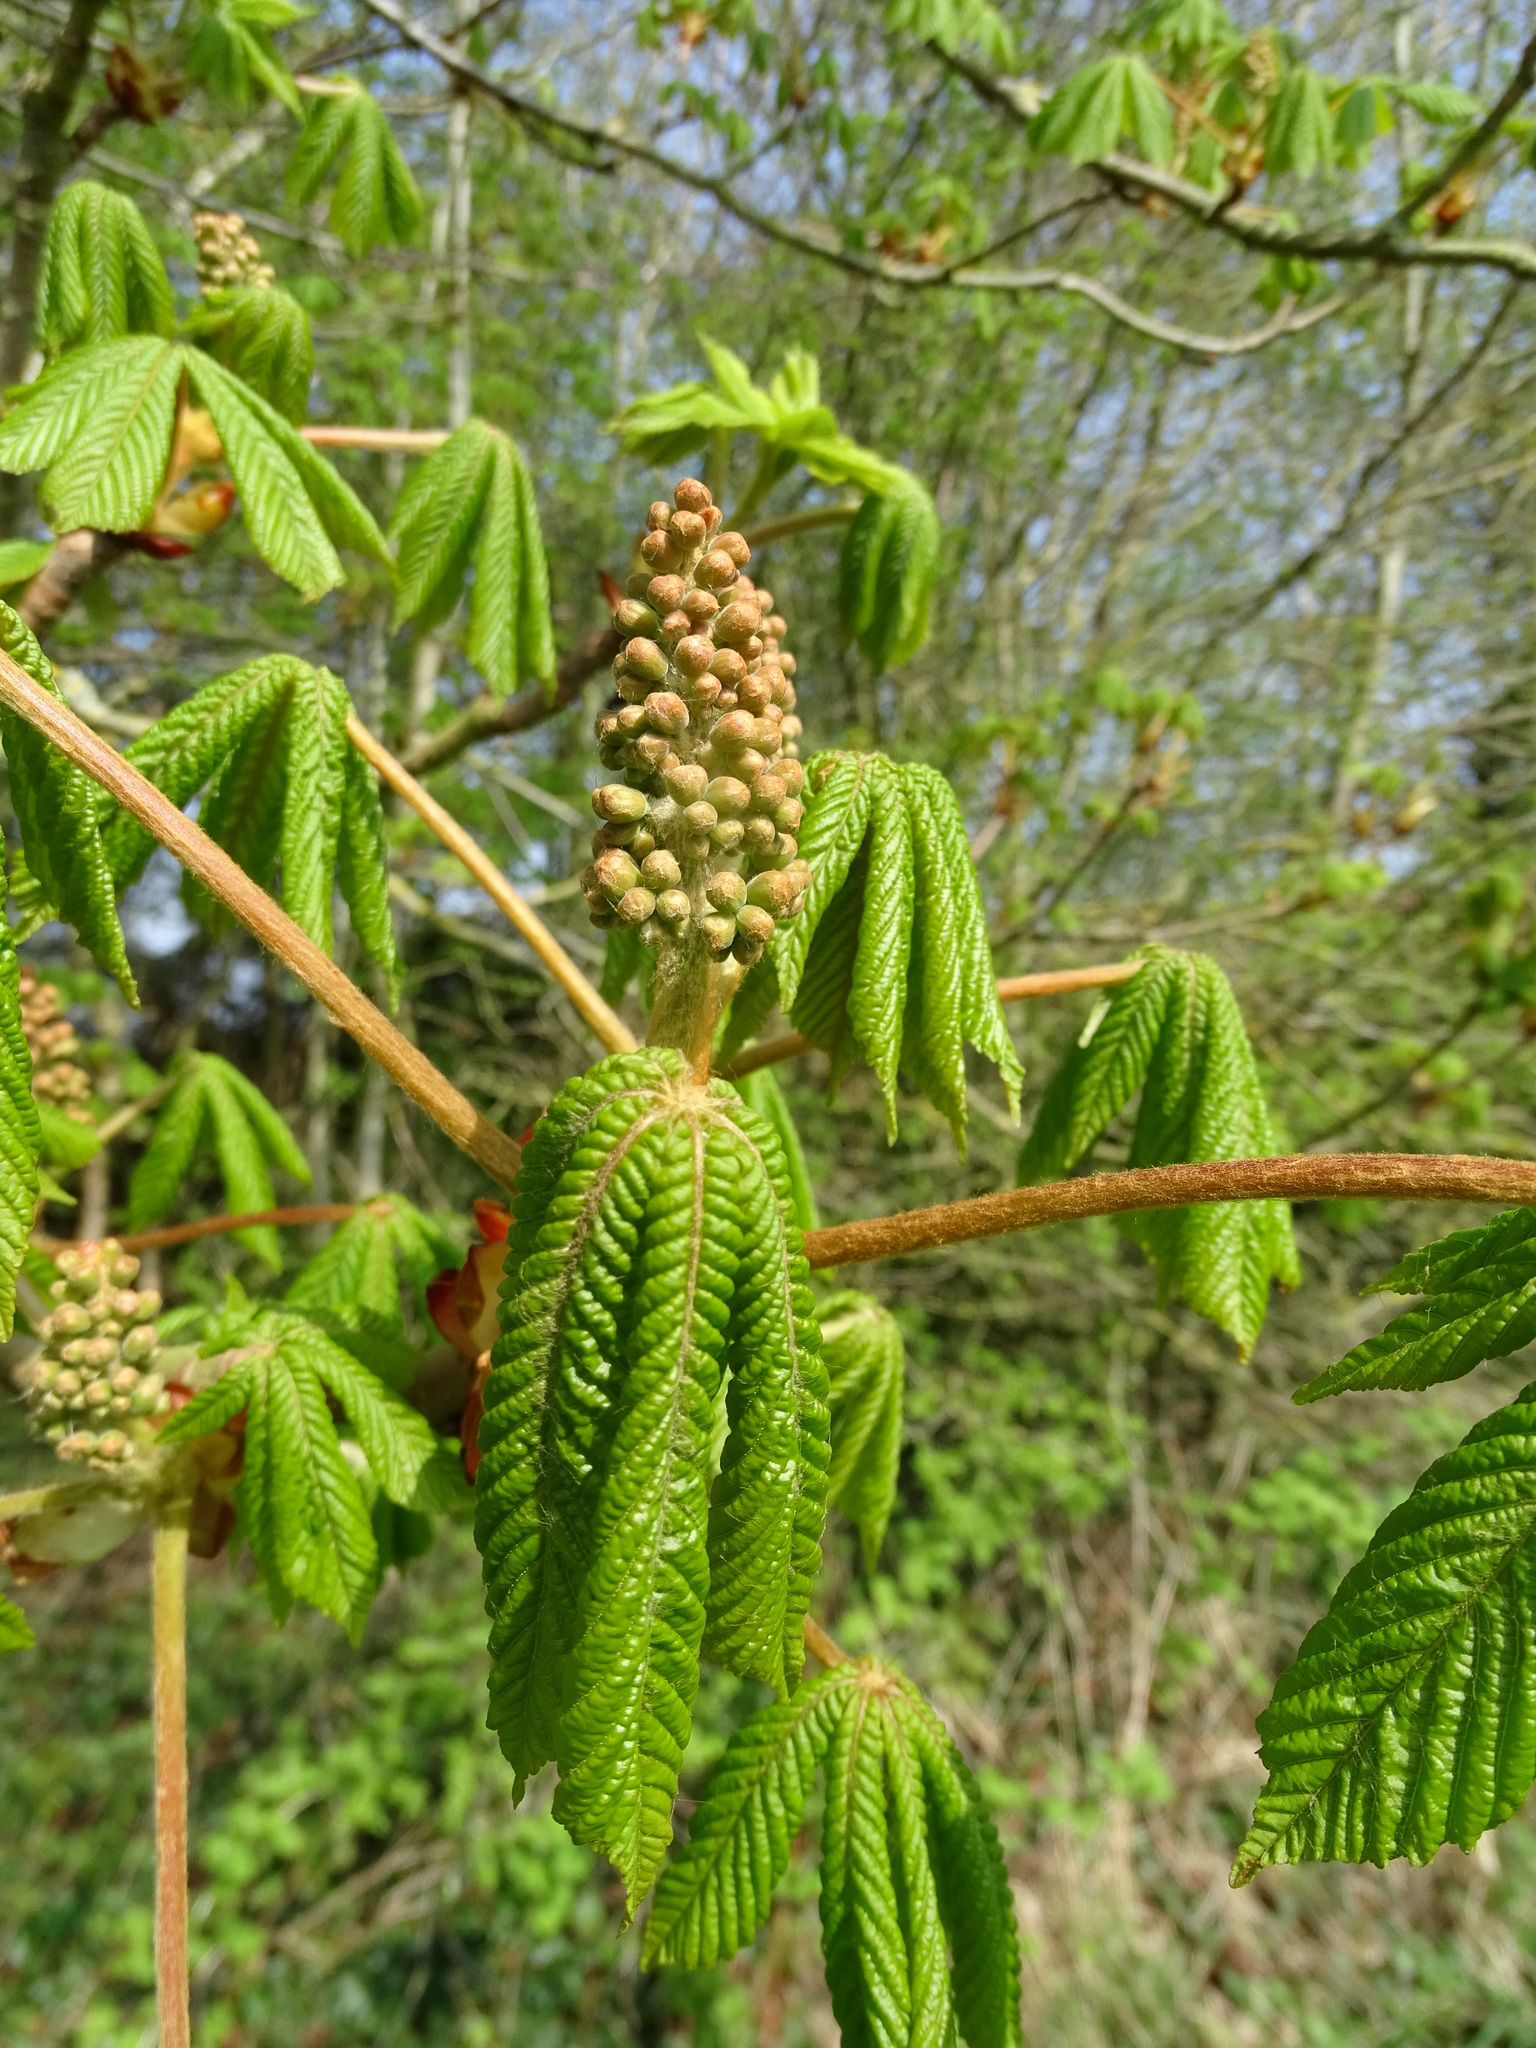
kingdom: Plantae
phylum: Tracheophyta
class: Magnoliopsida
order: Sapindales
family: Sapindaceae
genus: Aesculus
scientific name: Aesculus hippocastanum
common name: Horse-chestnut
